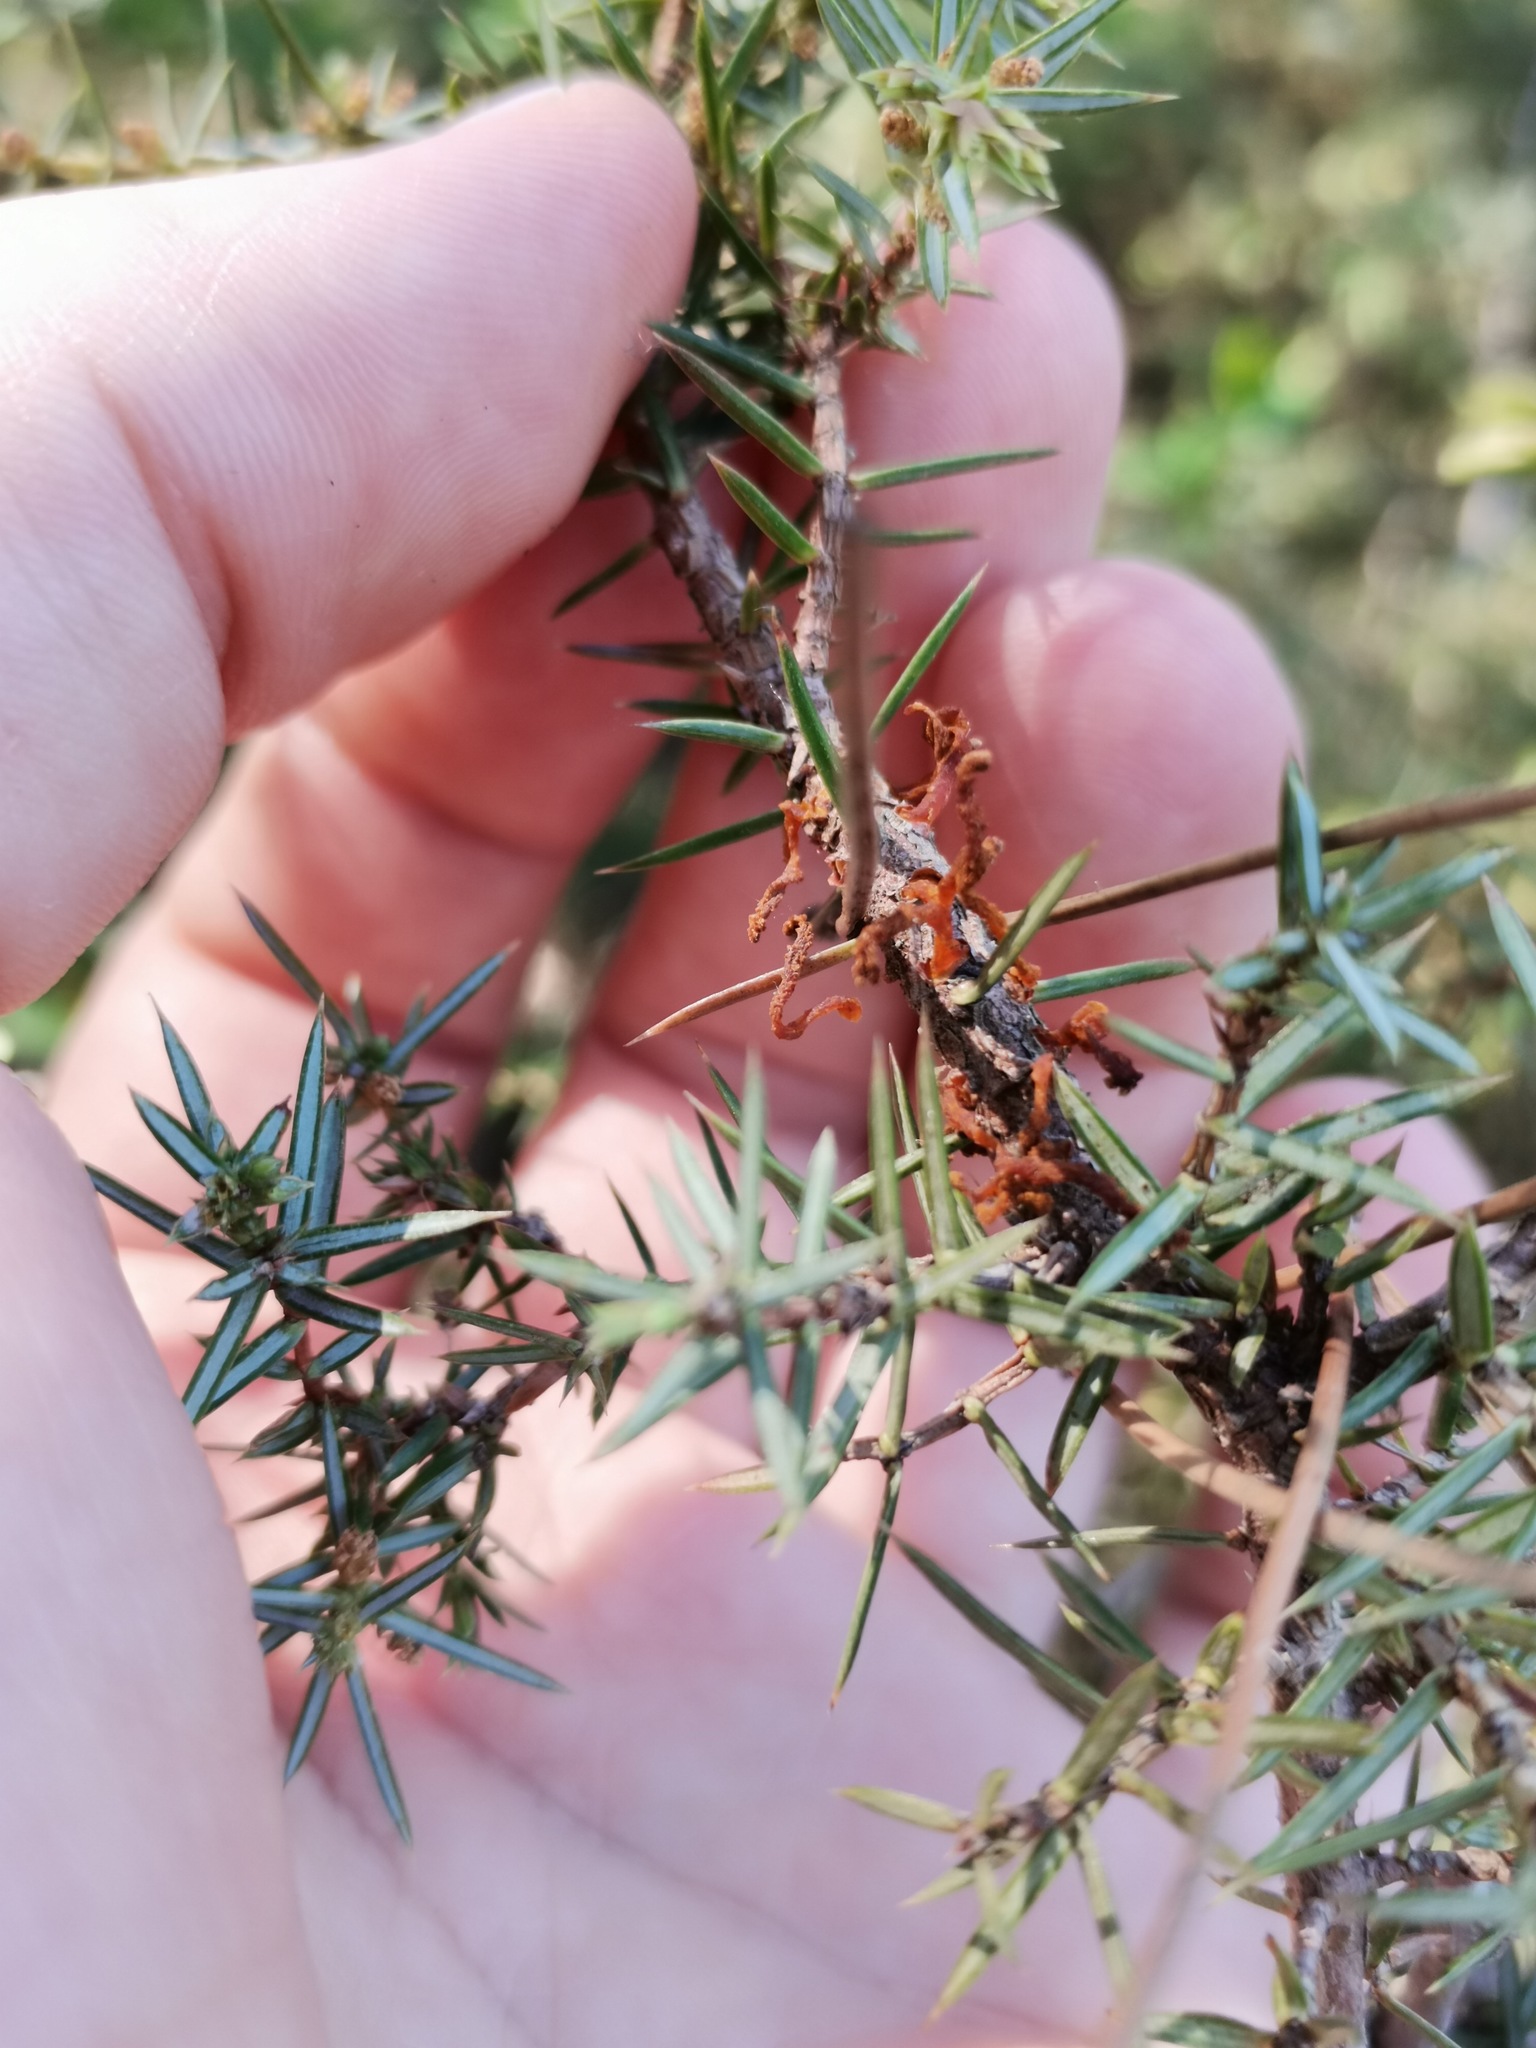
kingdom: Fungi
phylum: Basidiomycota
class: Pucciniomycetes
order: Pucciniales
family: Gymnosporangiaceae
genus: Gymnosporangium
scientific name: Gymnosporangium clavariiforme
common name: Tongues of fire
